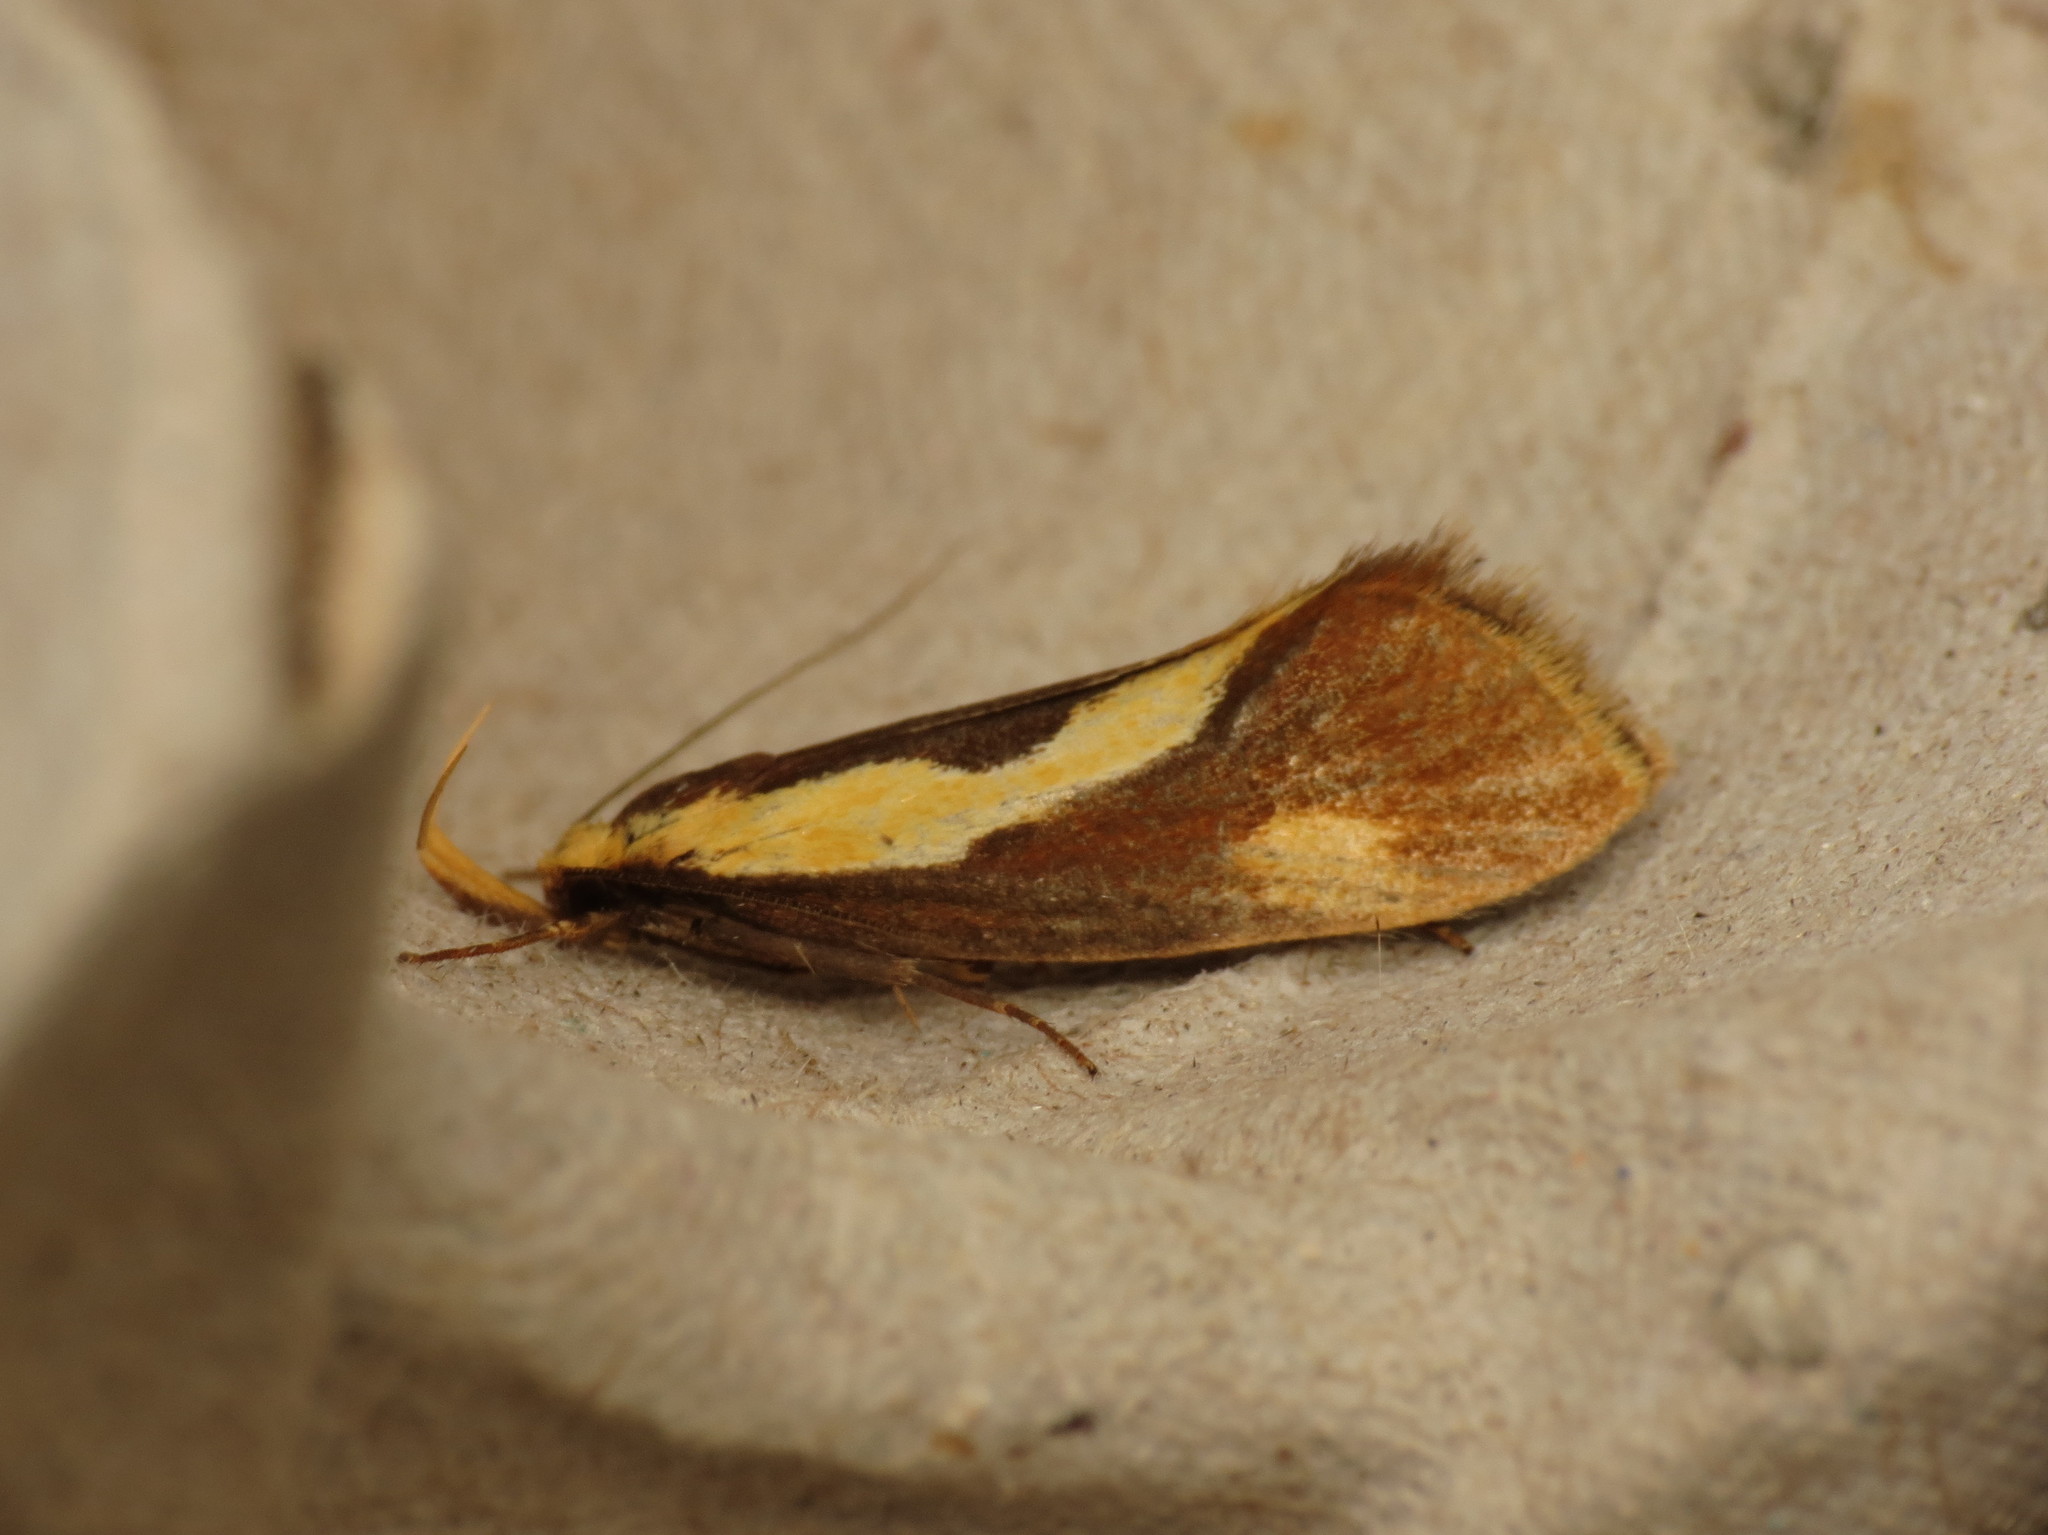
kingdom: Animalia
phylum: Arthropoda
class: Insecta
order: Lepidoptera
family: Oecophoridae
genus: Harpella
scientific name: Harpella forficella
